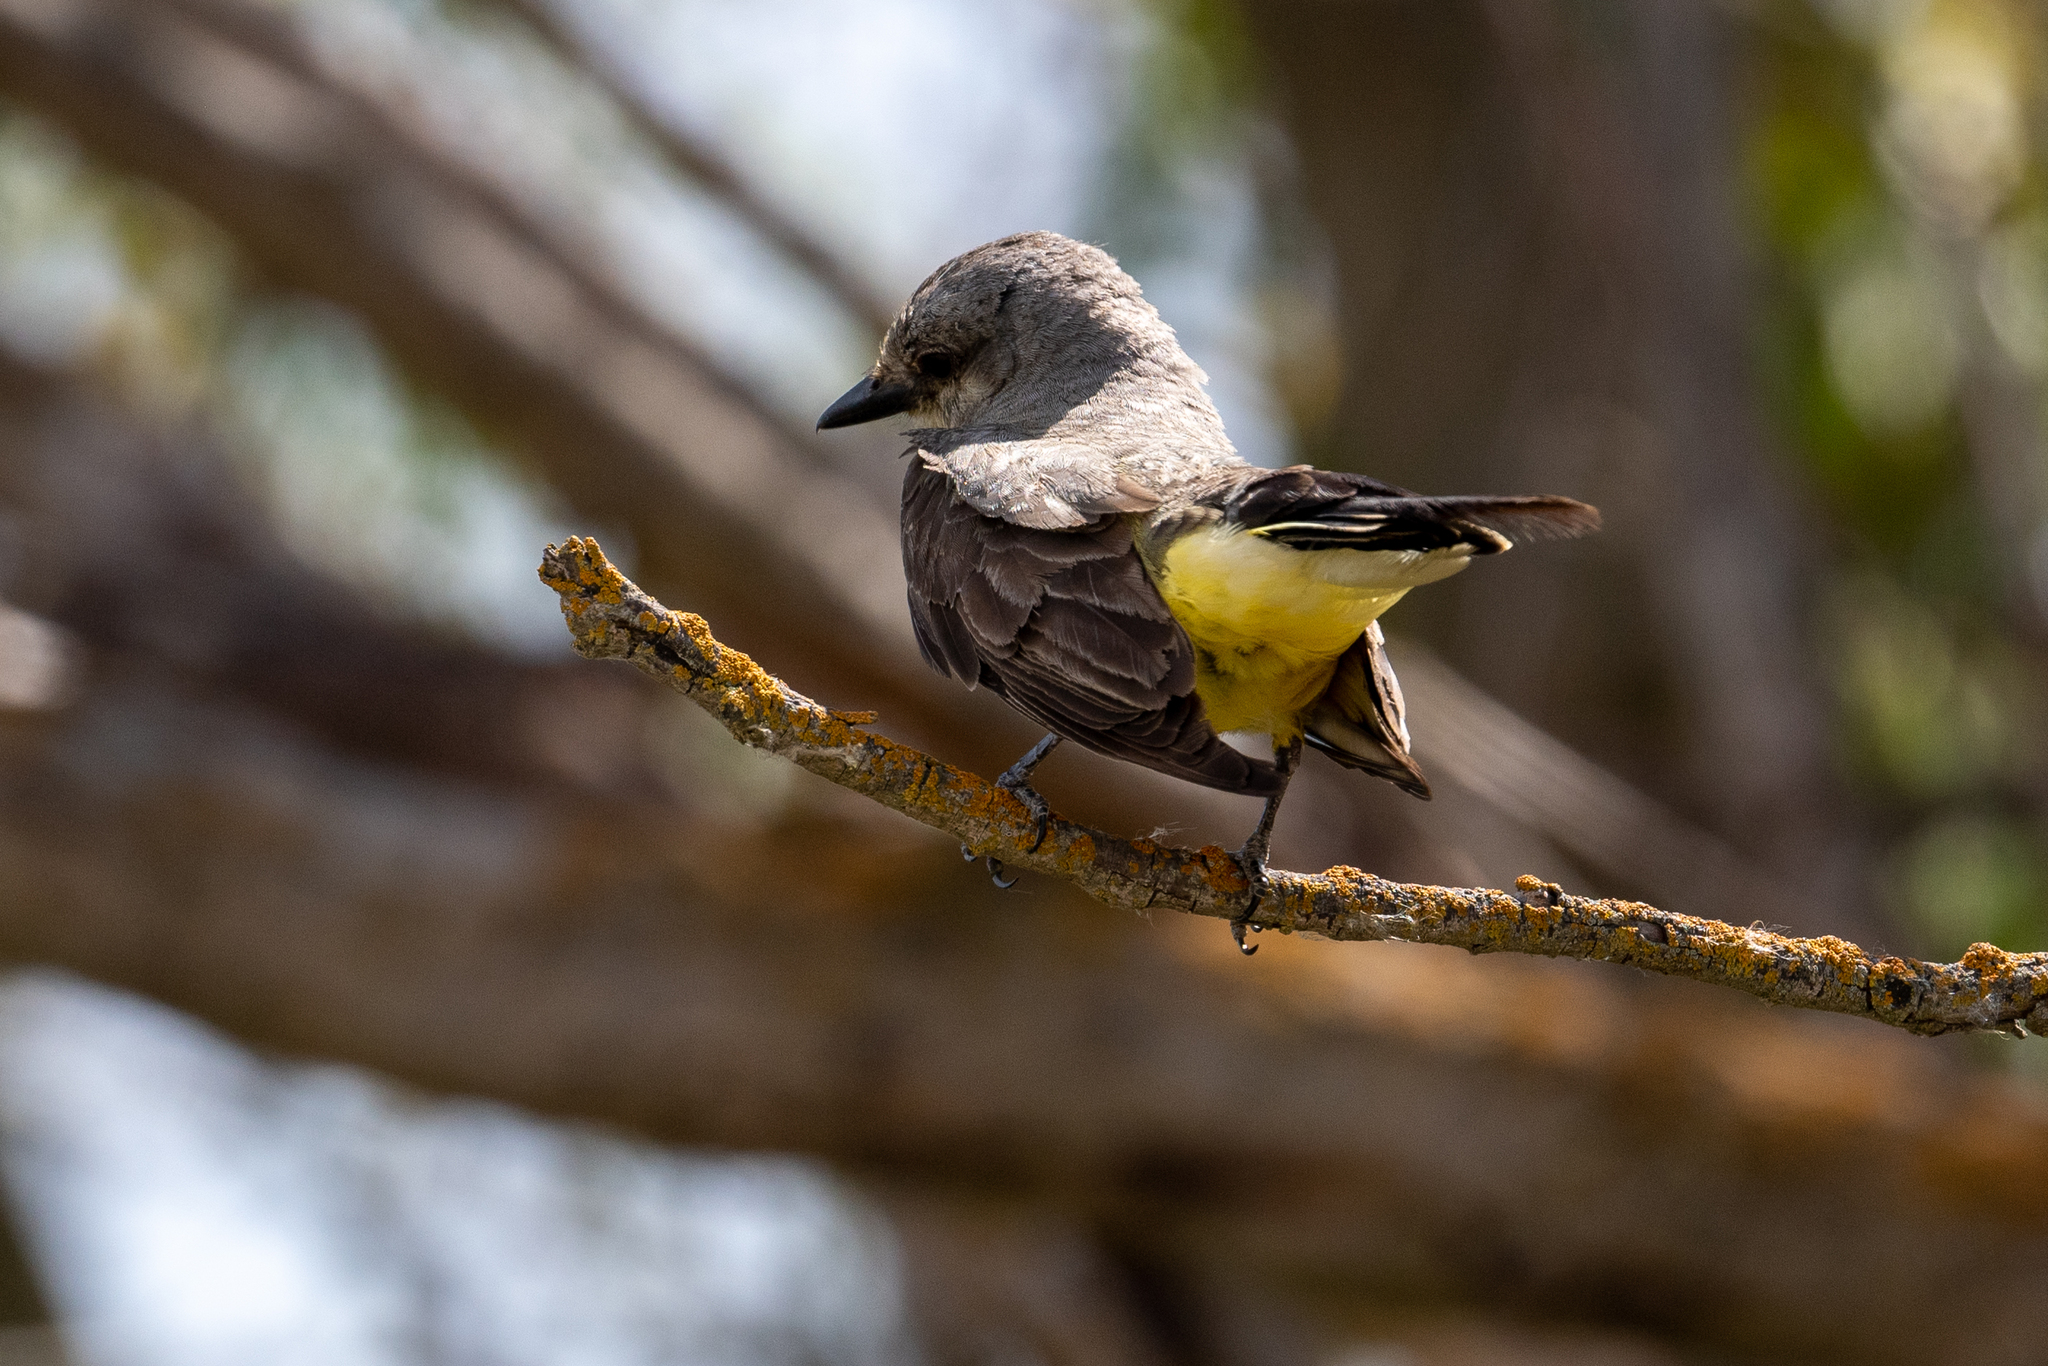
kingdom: Animalia
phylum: Chordata
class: Aves
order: Passeriformes
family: Tyrannidae
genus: Tyrannus
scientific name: Tyrannus verticalis
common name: Western kingbird
